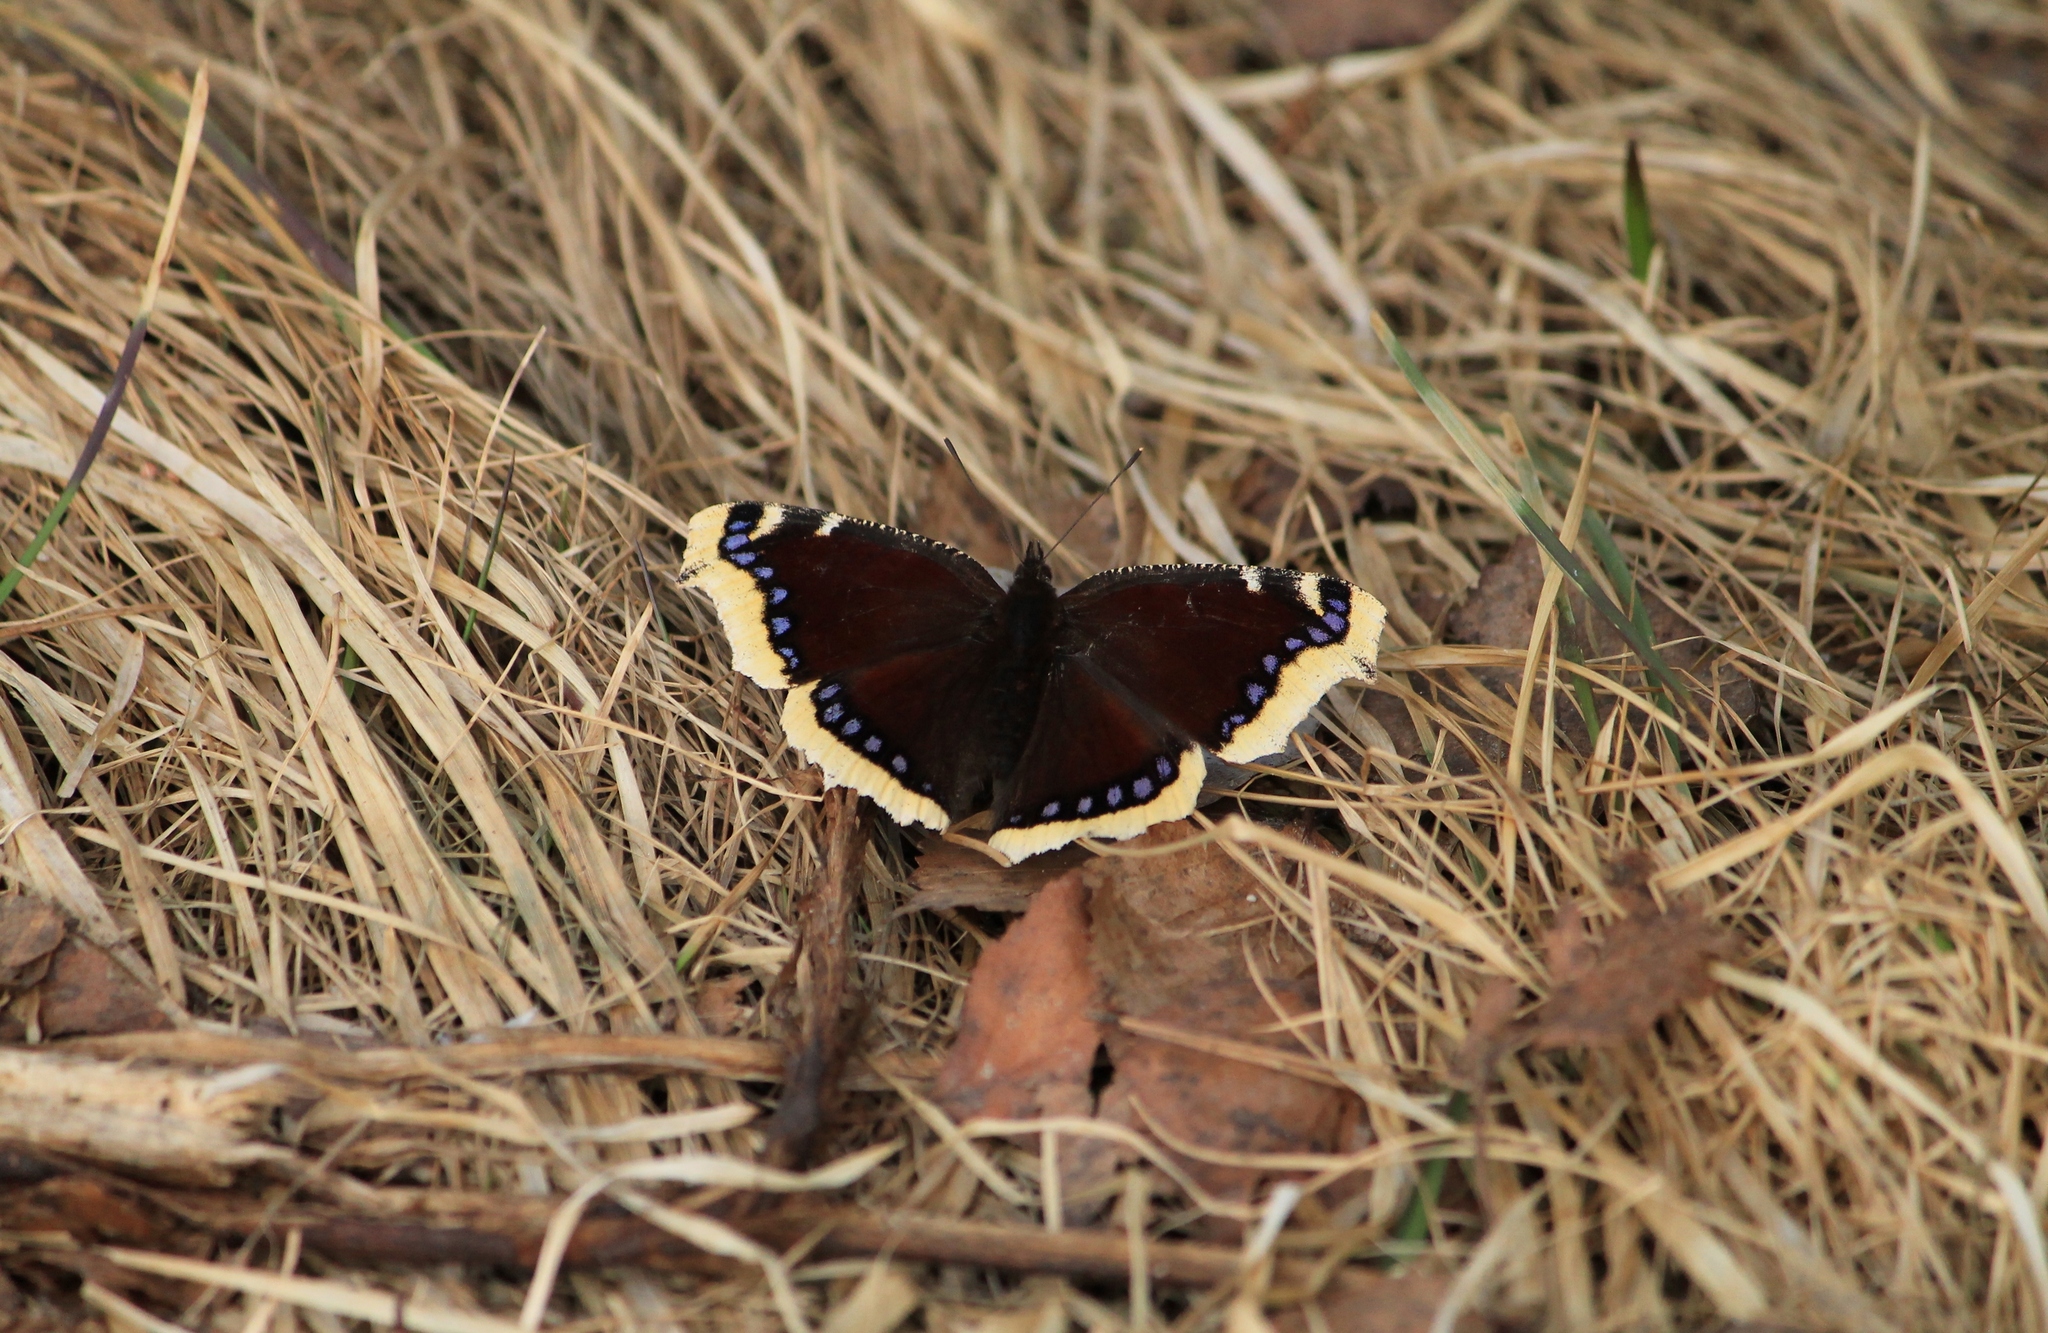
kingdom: Animalia
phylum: Arthropoda
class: Insecta
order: Lepidoptera
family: Nymphalidae
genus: Nymphalis
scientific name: Nymphalis antiopa
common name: Camberwell beauty
